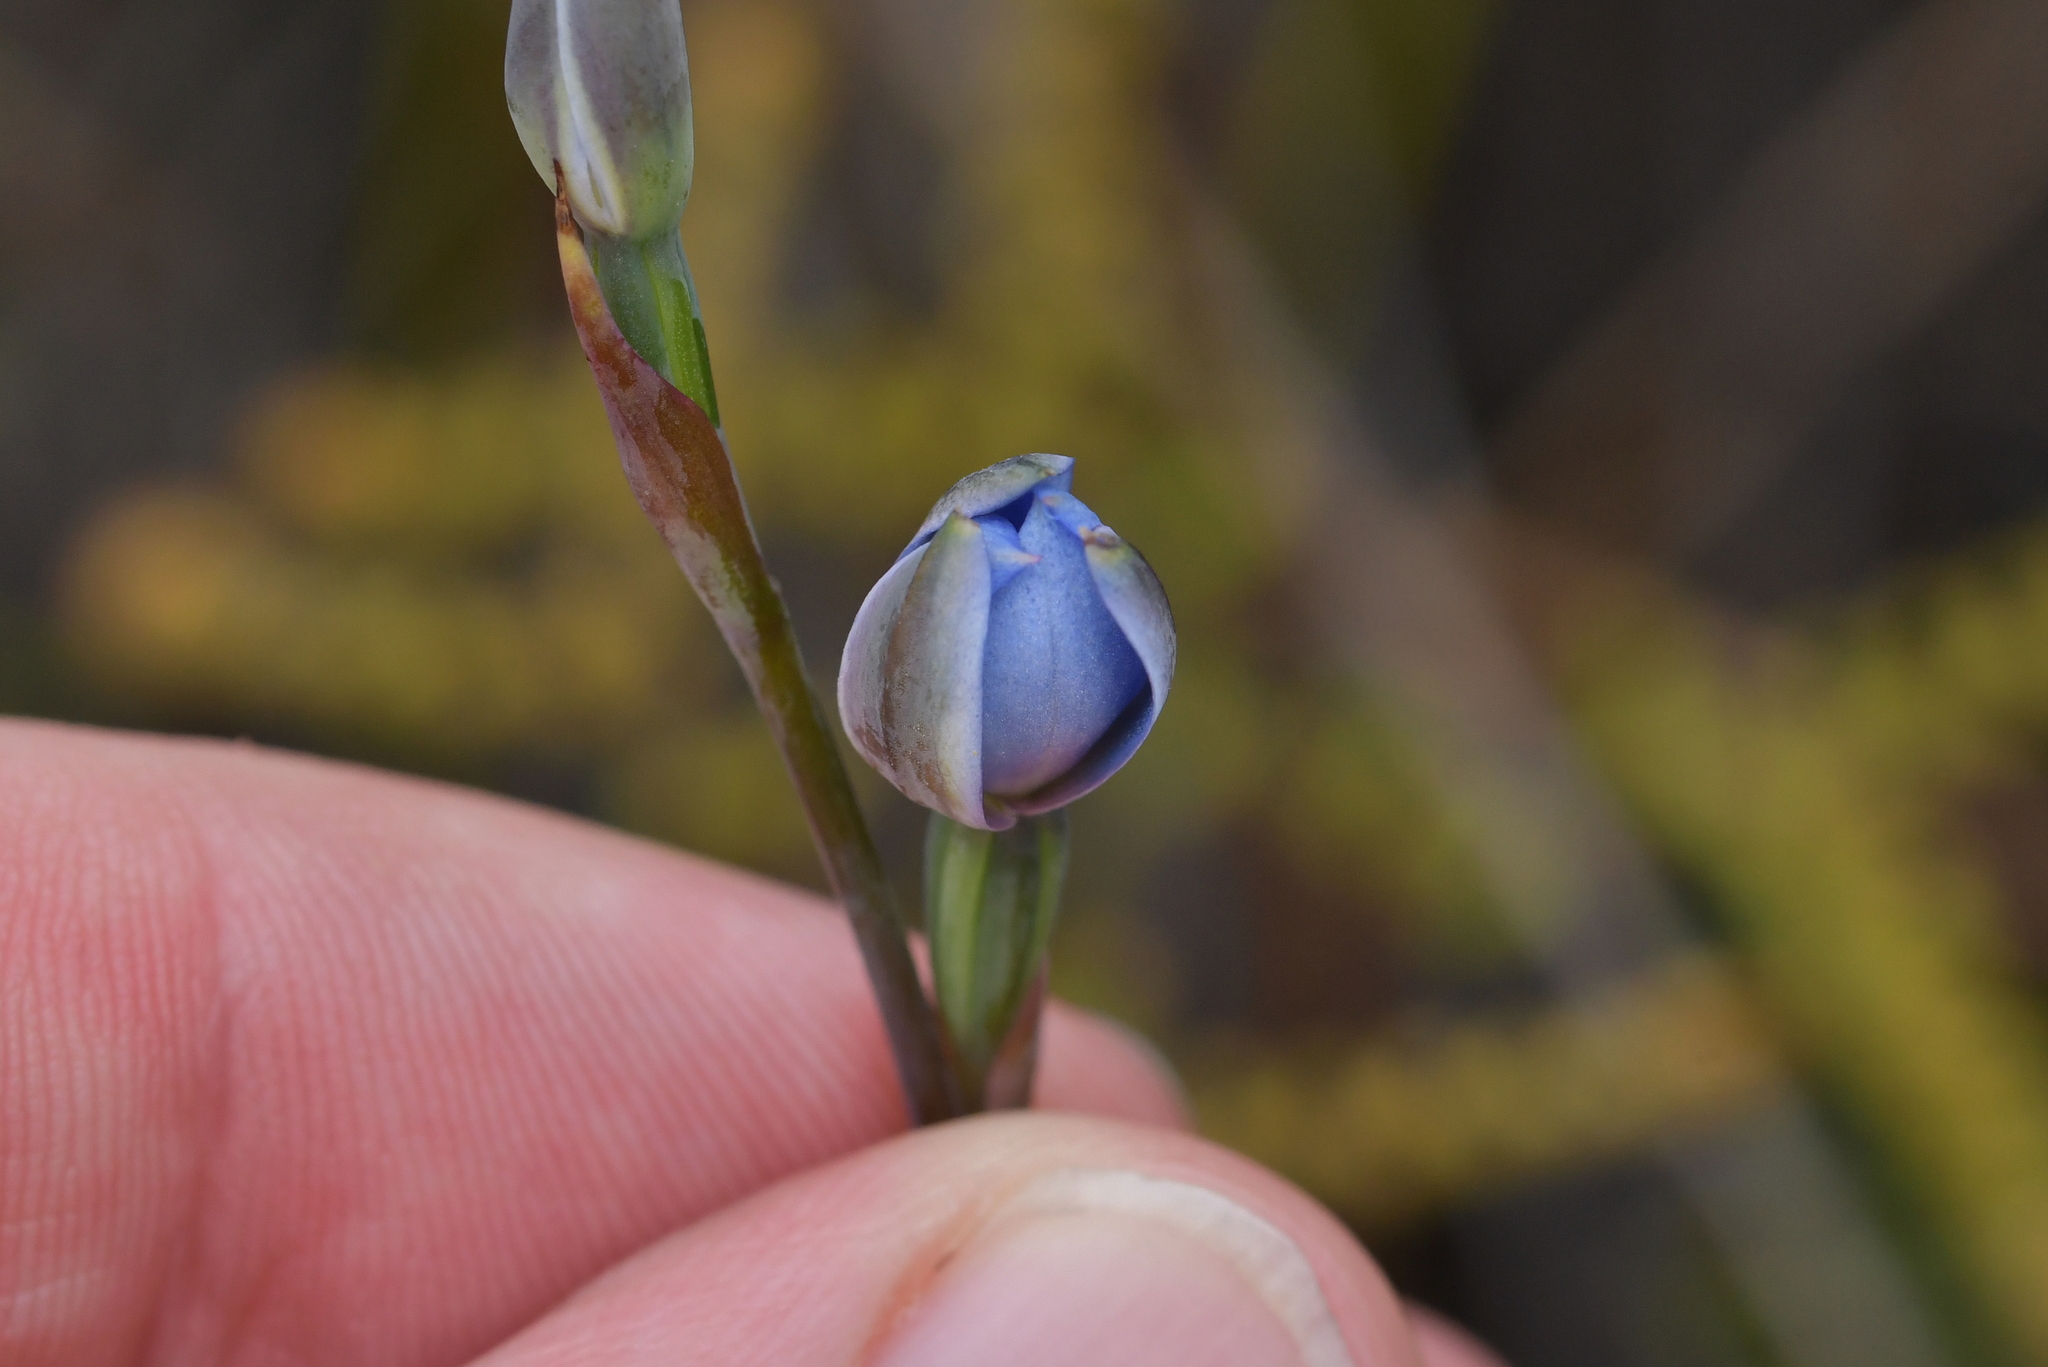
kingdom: Plantae
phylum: Tracheophyta
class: Liliopsida
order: Asparagales
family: Orchidaceae
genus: Thelymitra
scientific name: Thelymitra pulchella
